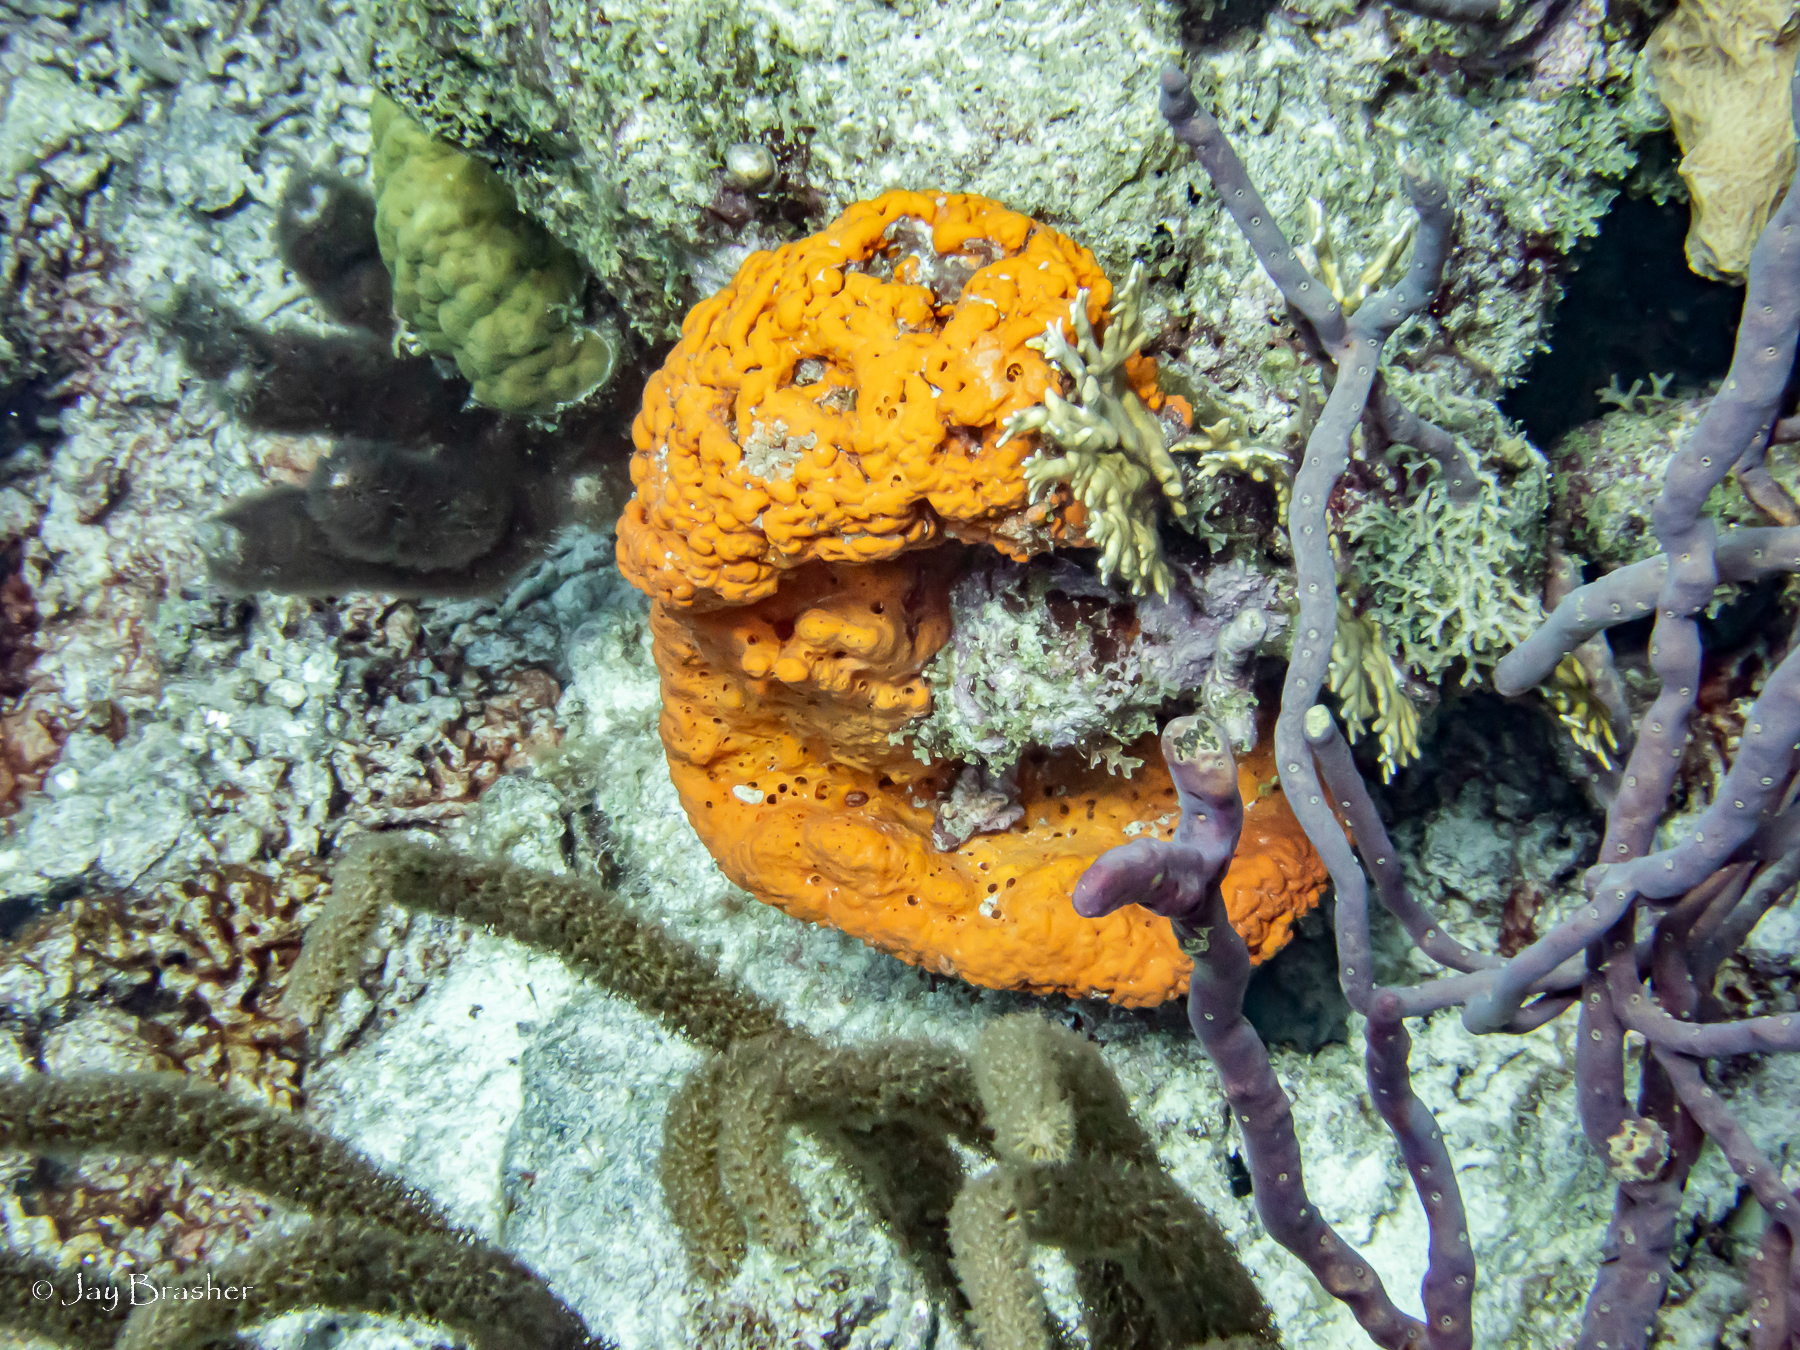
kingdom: Animalia
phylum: Porifera
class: Demospongiae
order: Verongiida
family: Aplysinidae
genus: Aplysina
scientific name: Aplysina cauliformis
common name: Branching candle sponge
